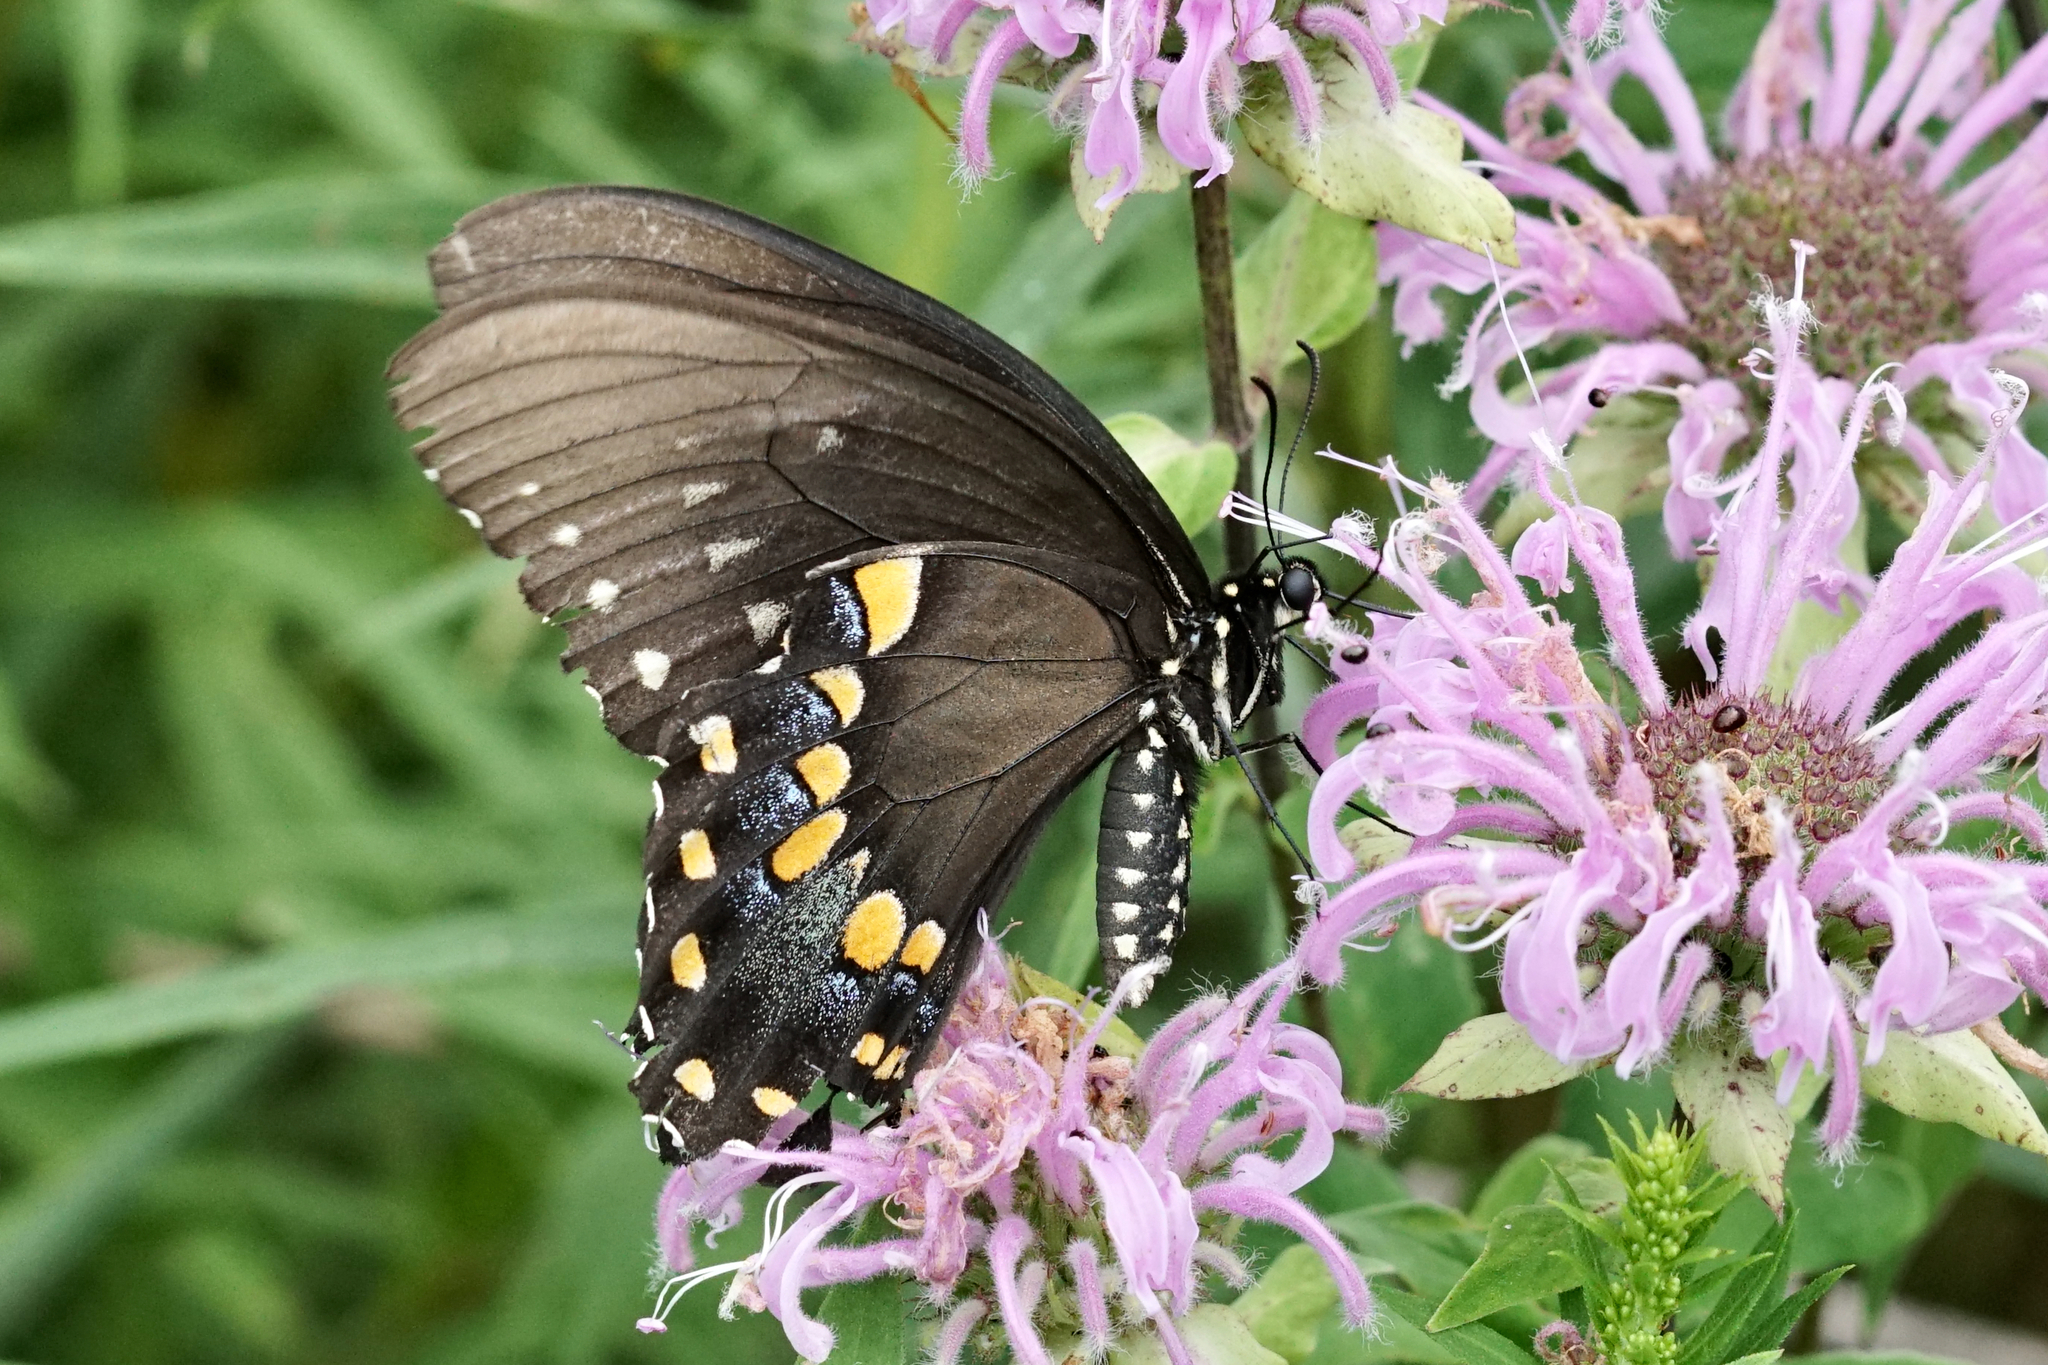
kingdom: Animalia
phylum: Arthropoda
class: Insecta
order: Lepidoptera
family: Papilionidae
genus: Papilio
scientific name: Papilio troilus
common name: Spicebush swallowtail
